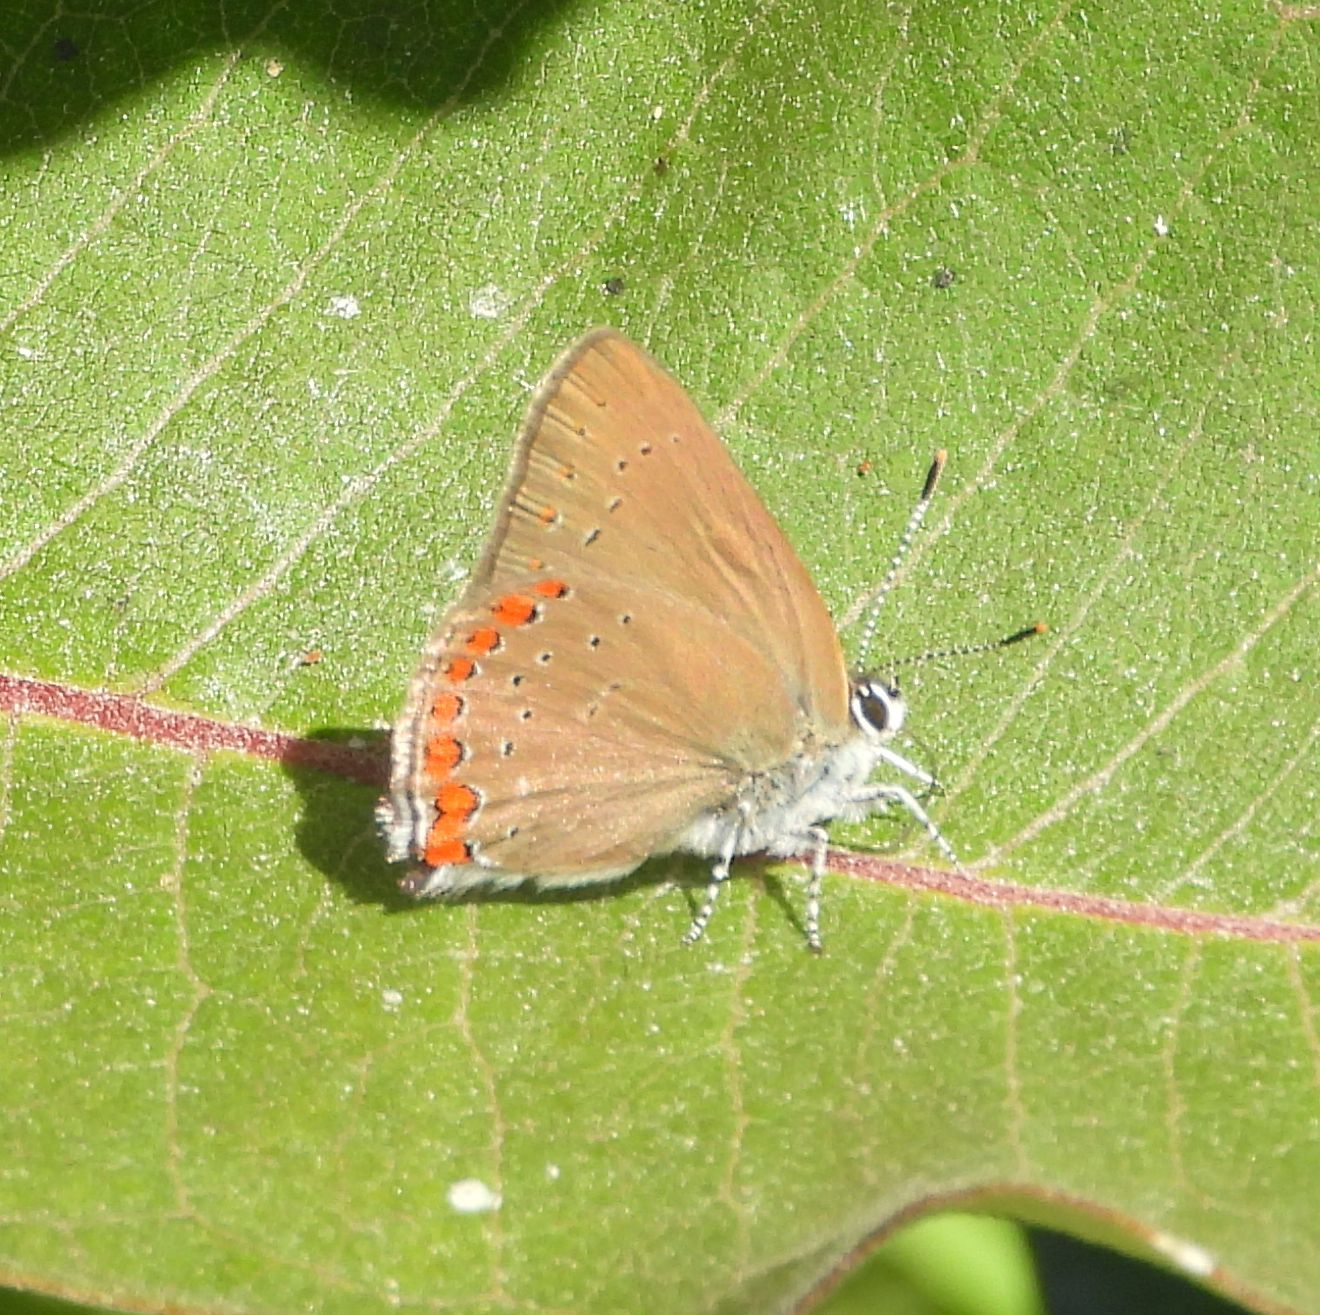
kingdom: Animalia
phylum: Arthropoda
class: Insecta
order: Lepidoptera
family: Lycaenidae
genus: Harkenclenus
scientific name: Harkenclenus titus
